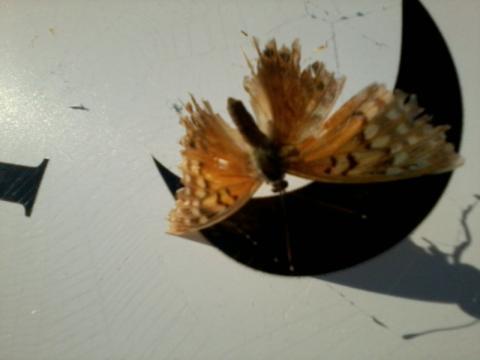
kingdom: Animalia
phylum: Arthropoda
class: Insecta
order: Lepidoptera
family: Nymphalidae
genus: Euptoieta
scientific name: Euptoieta claudia
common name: Variegated fritillary
